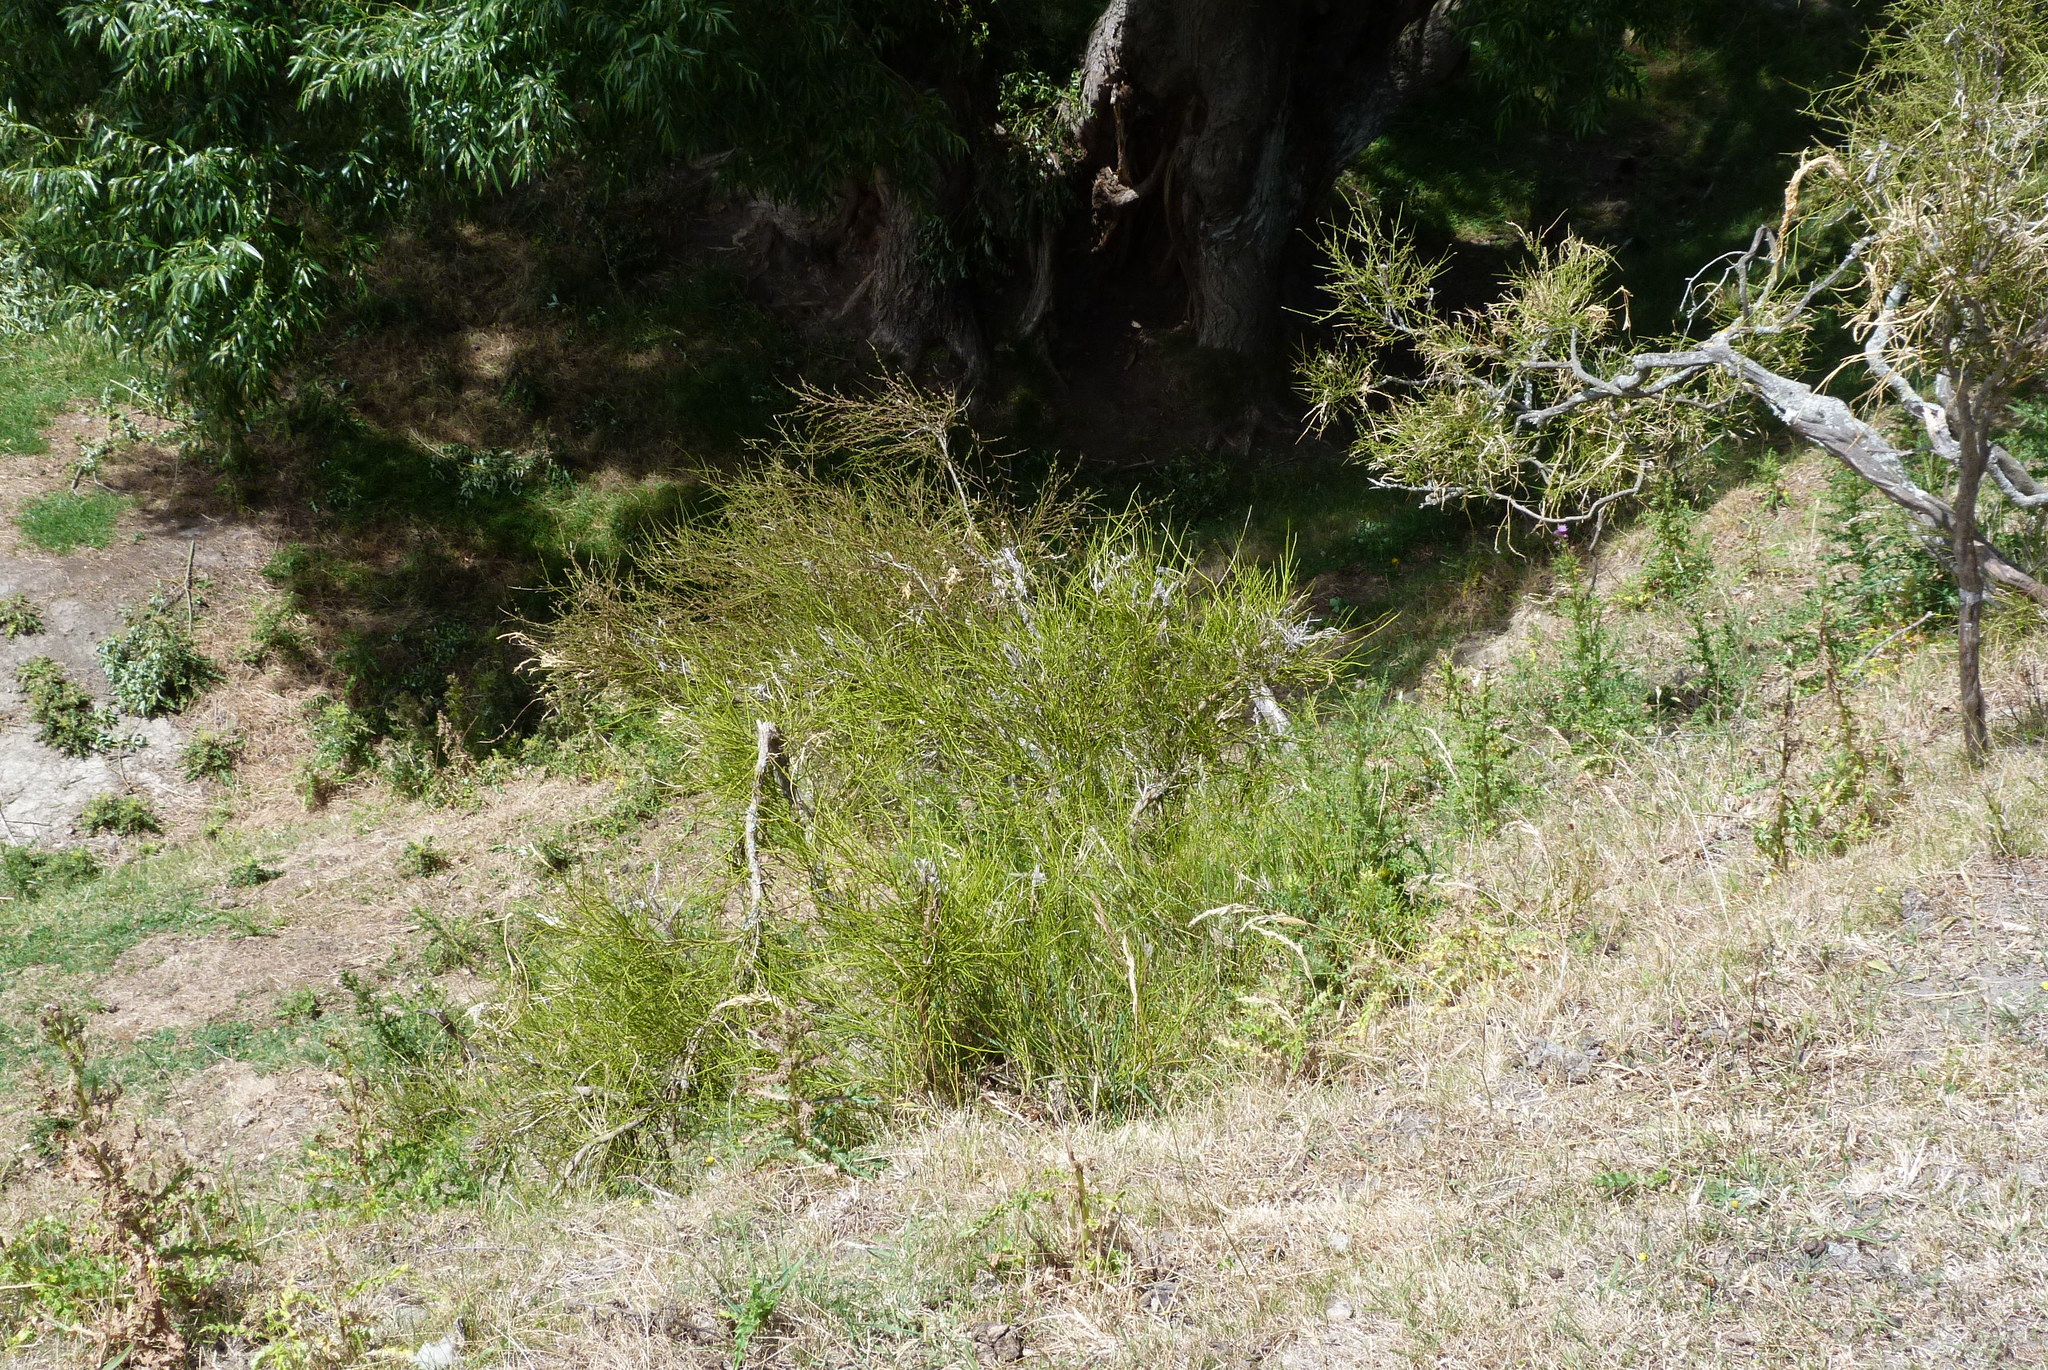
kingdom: Plantae
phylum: Tracheophyta
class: Magnoliopsida
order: Fabales
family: Fabaceae
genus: Carmichaelia
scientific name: Carmichaelia australis
